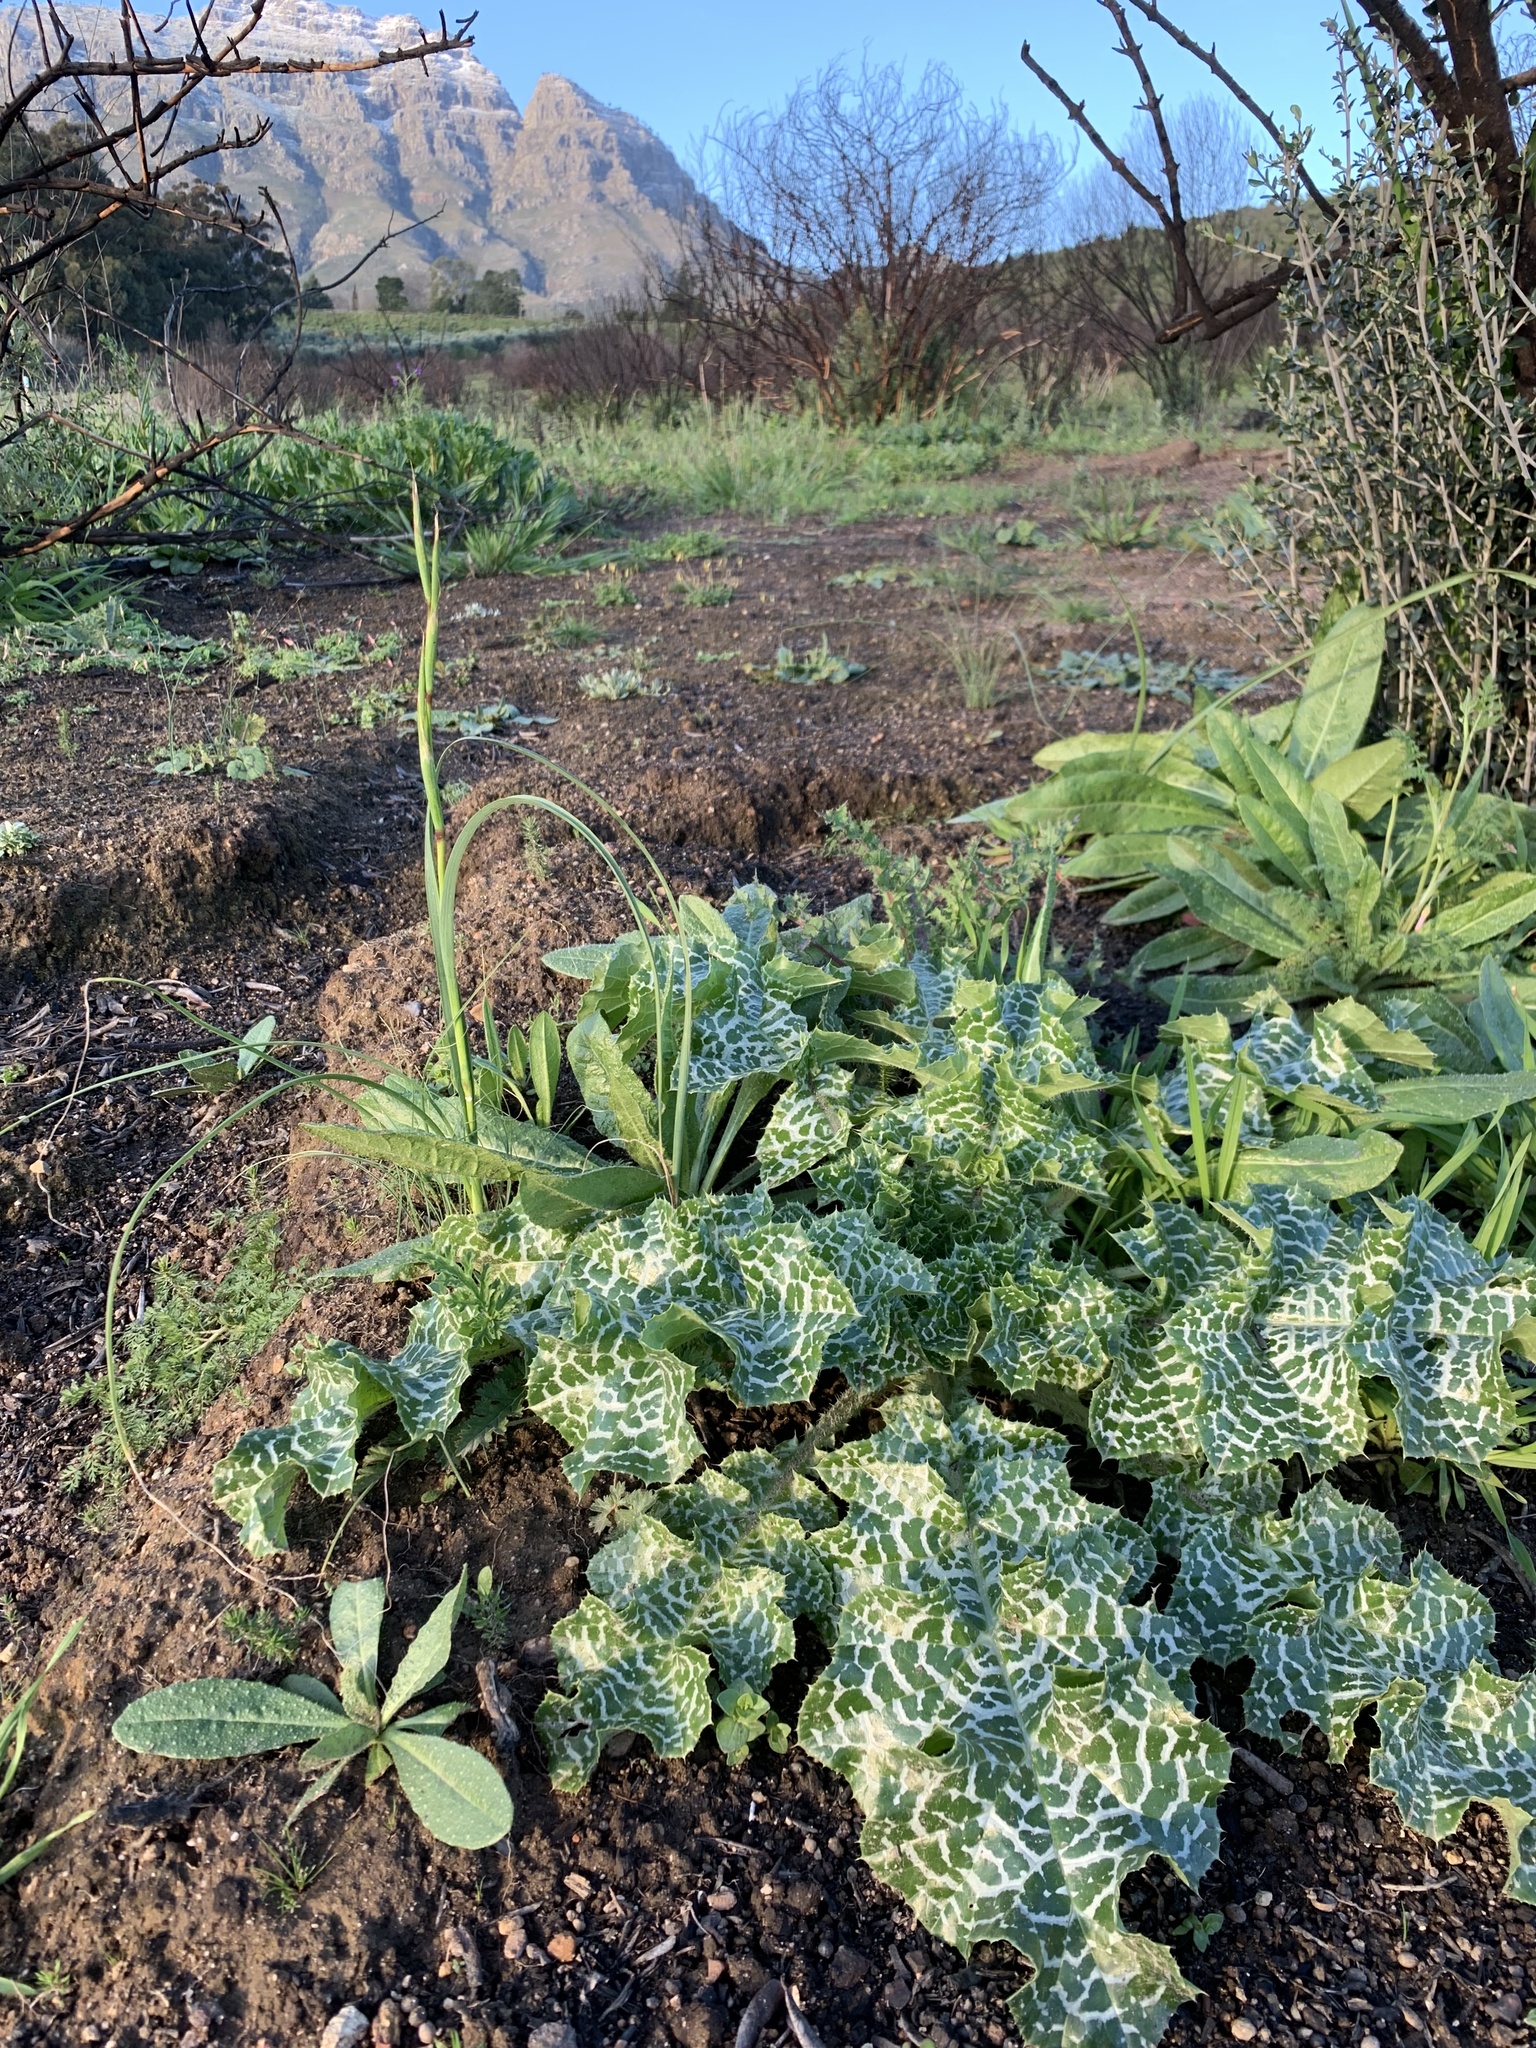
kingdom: Plantae
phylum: Tracheophyta
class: Magnoliopsida
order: Asterales
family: Asteraceae
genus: Silybum
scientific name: Silybum marianum
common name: Milk thistle
